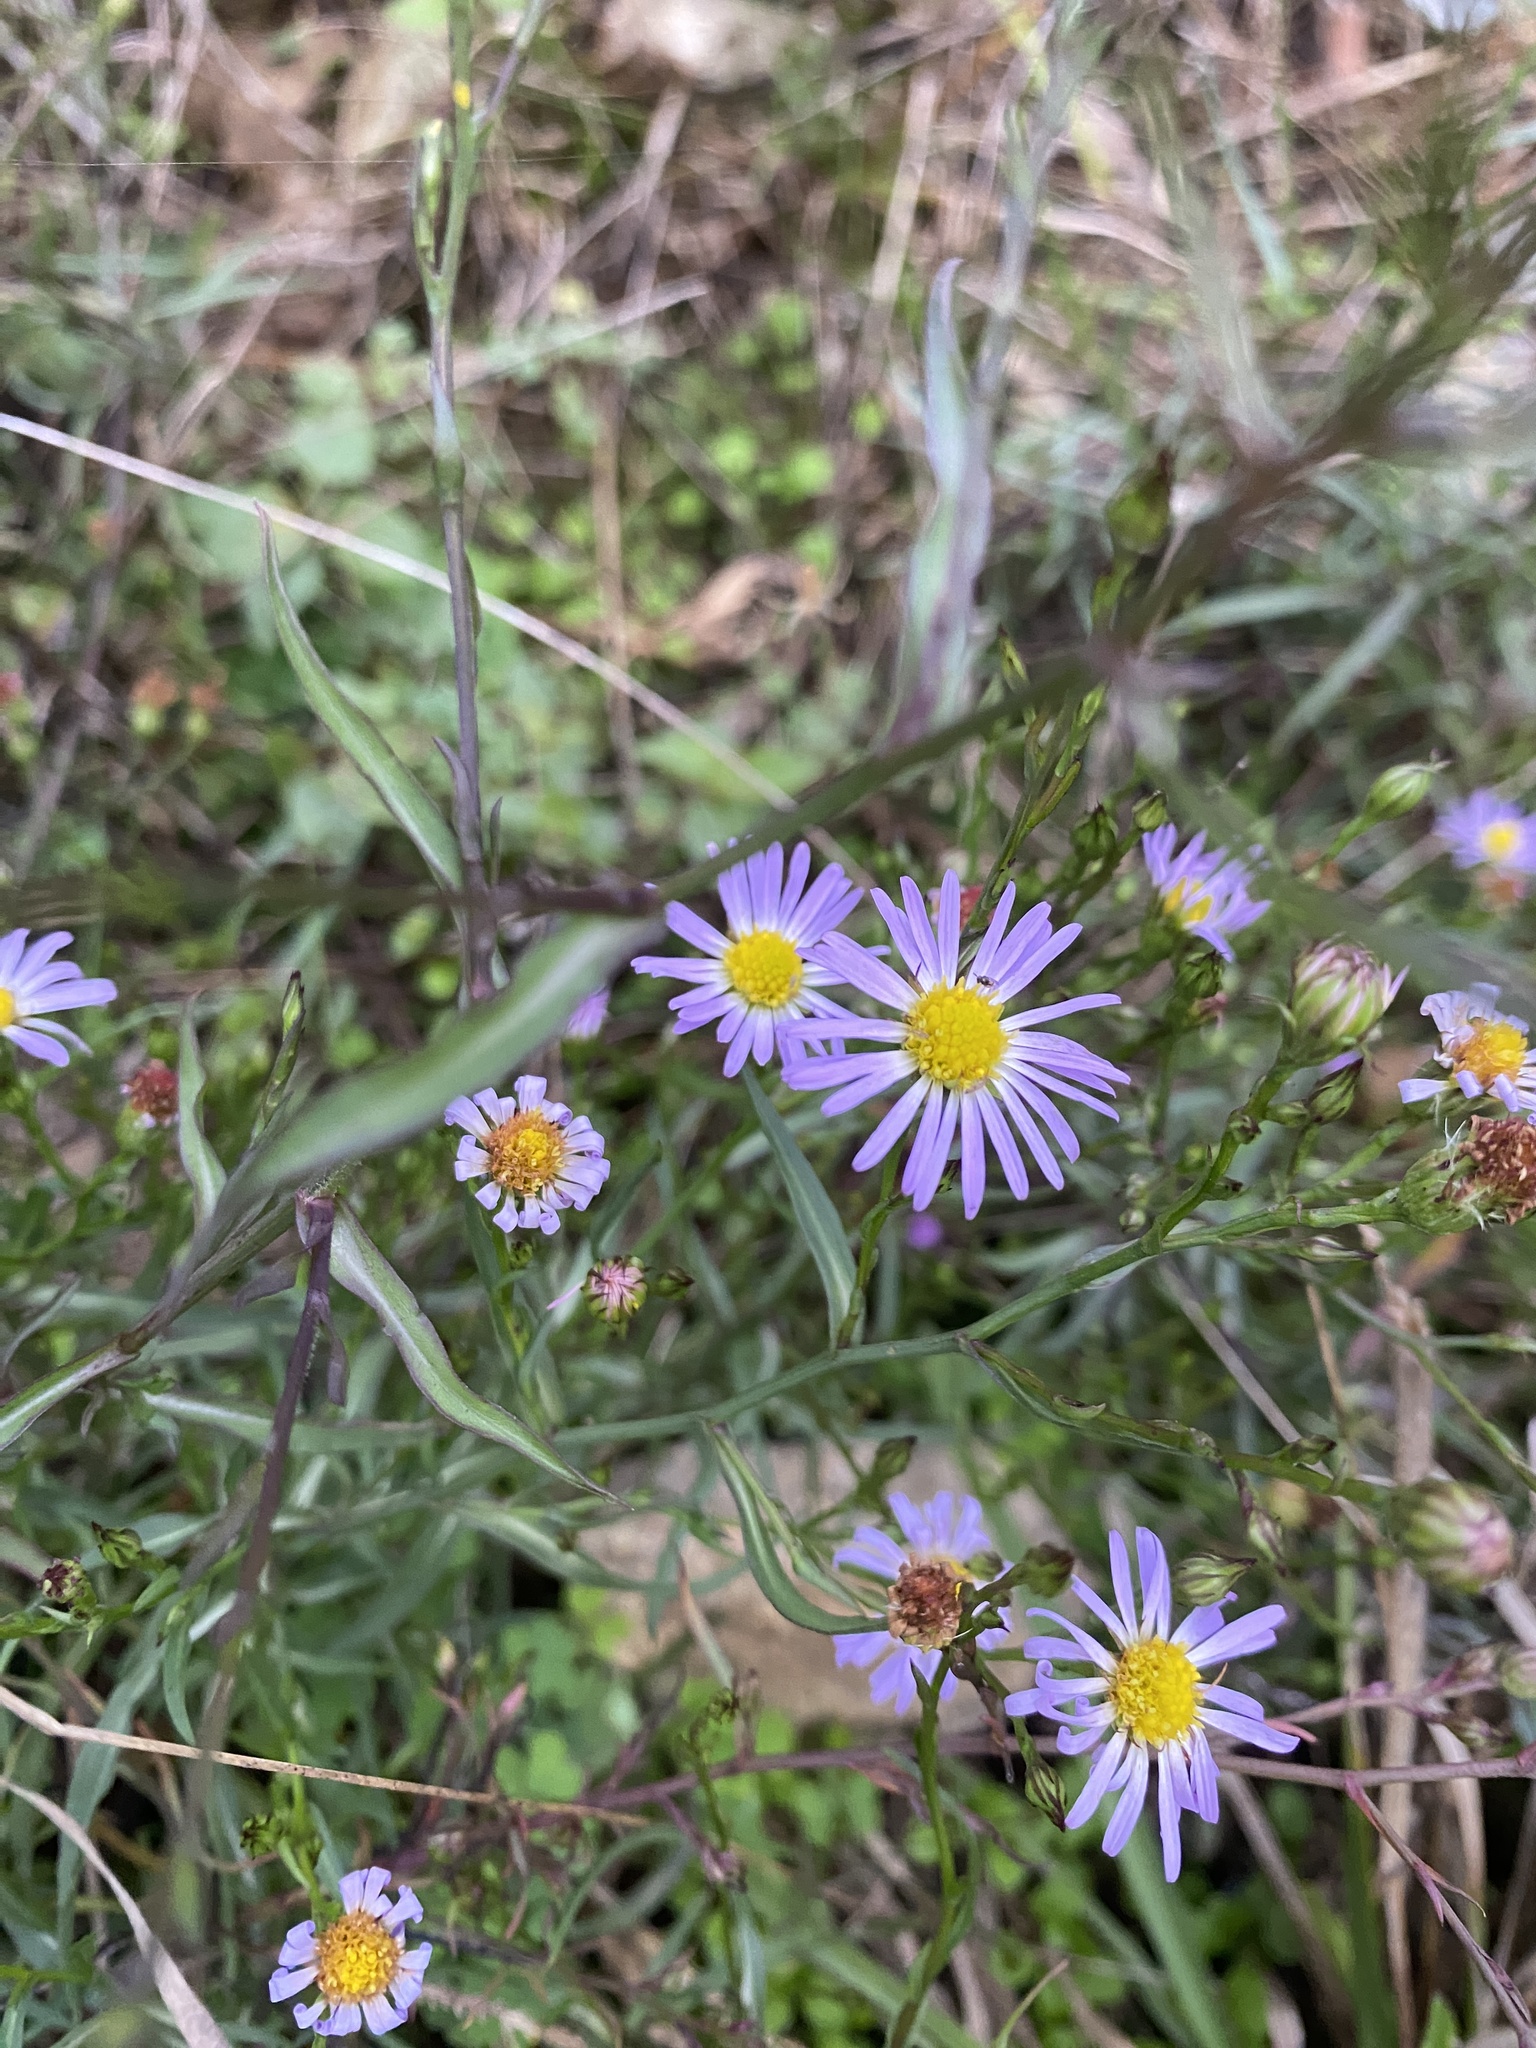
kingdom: Plantae
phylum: Tracheophyta
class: Magnoliopsida
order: Asterales
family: Asteraceae
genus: Symphyotrichum
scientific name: Symphyotrichum divaricatum
